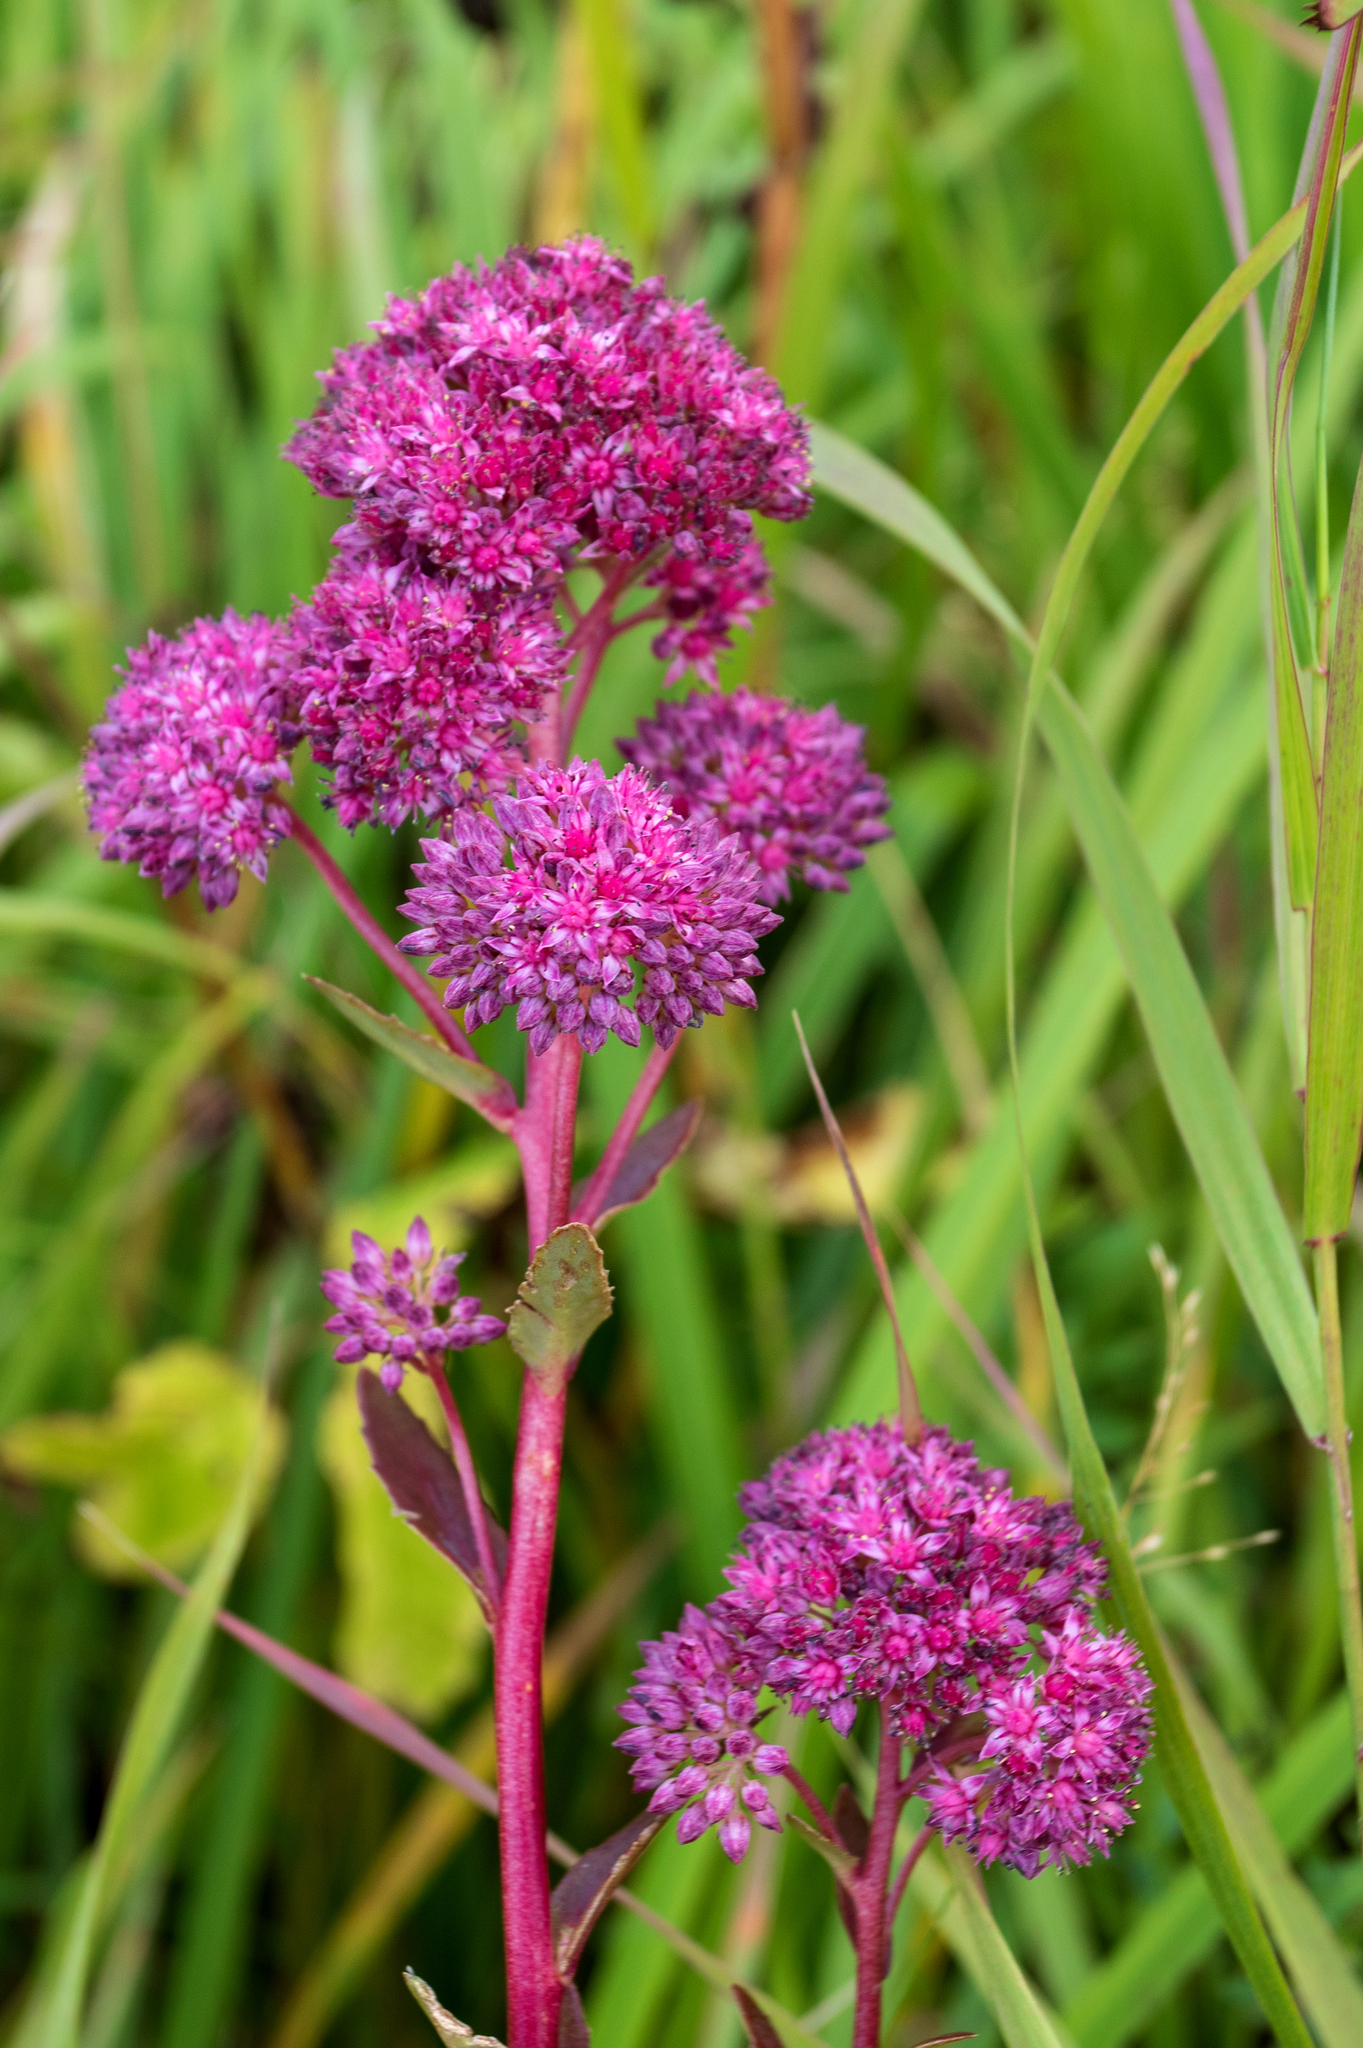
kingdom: Plantae
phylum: Tracheophyta
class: Magnoliopsida
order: Saxifragales
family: Crassulaceae
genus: Hylotelephium
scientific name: Hylotelephium telephium
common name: Live-forever
